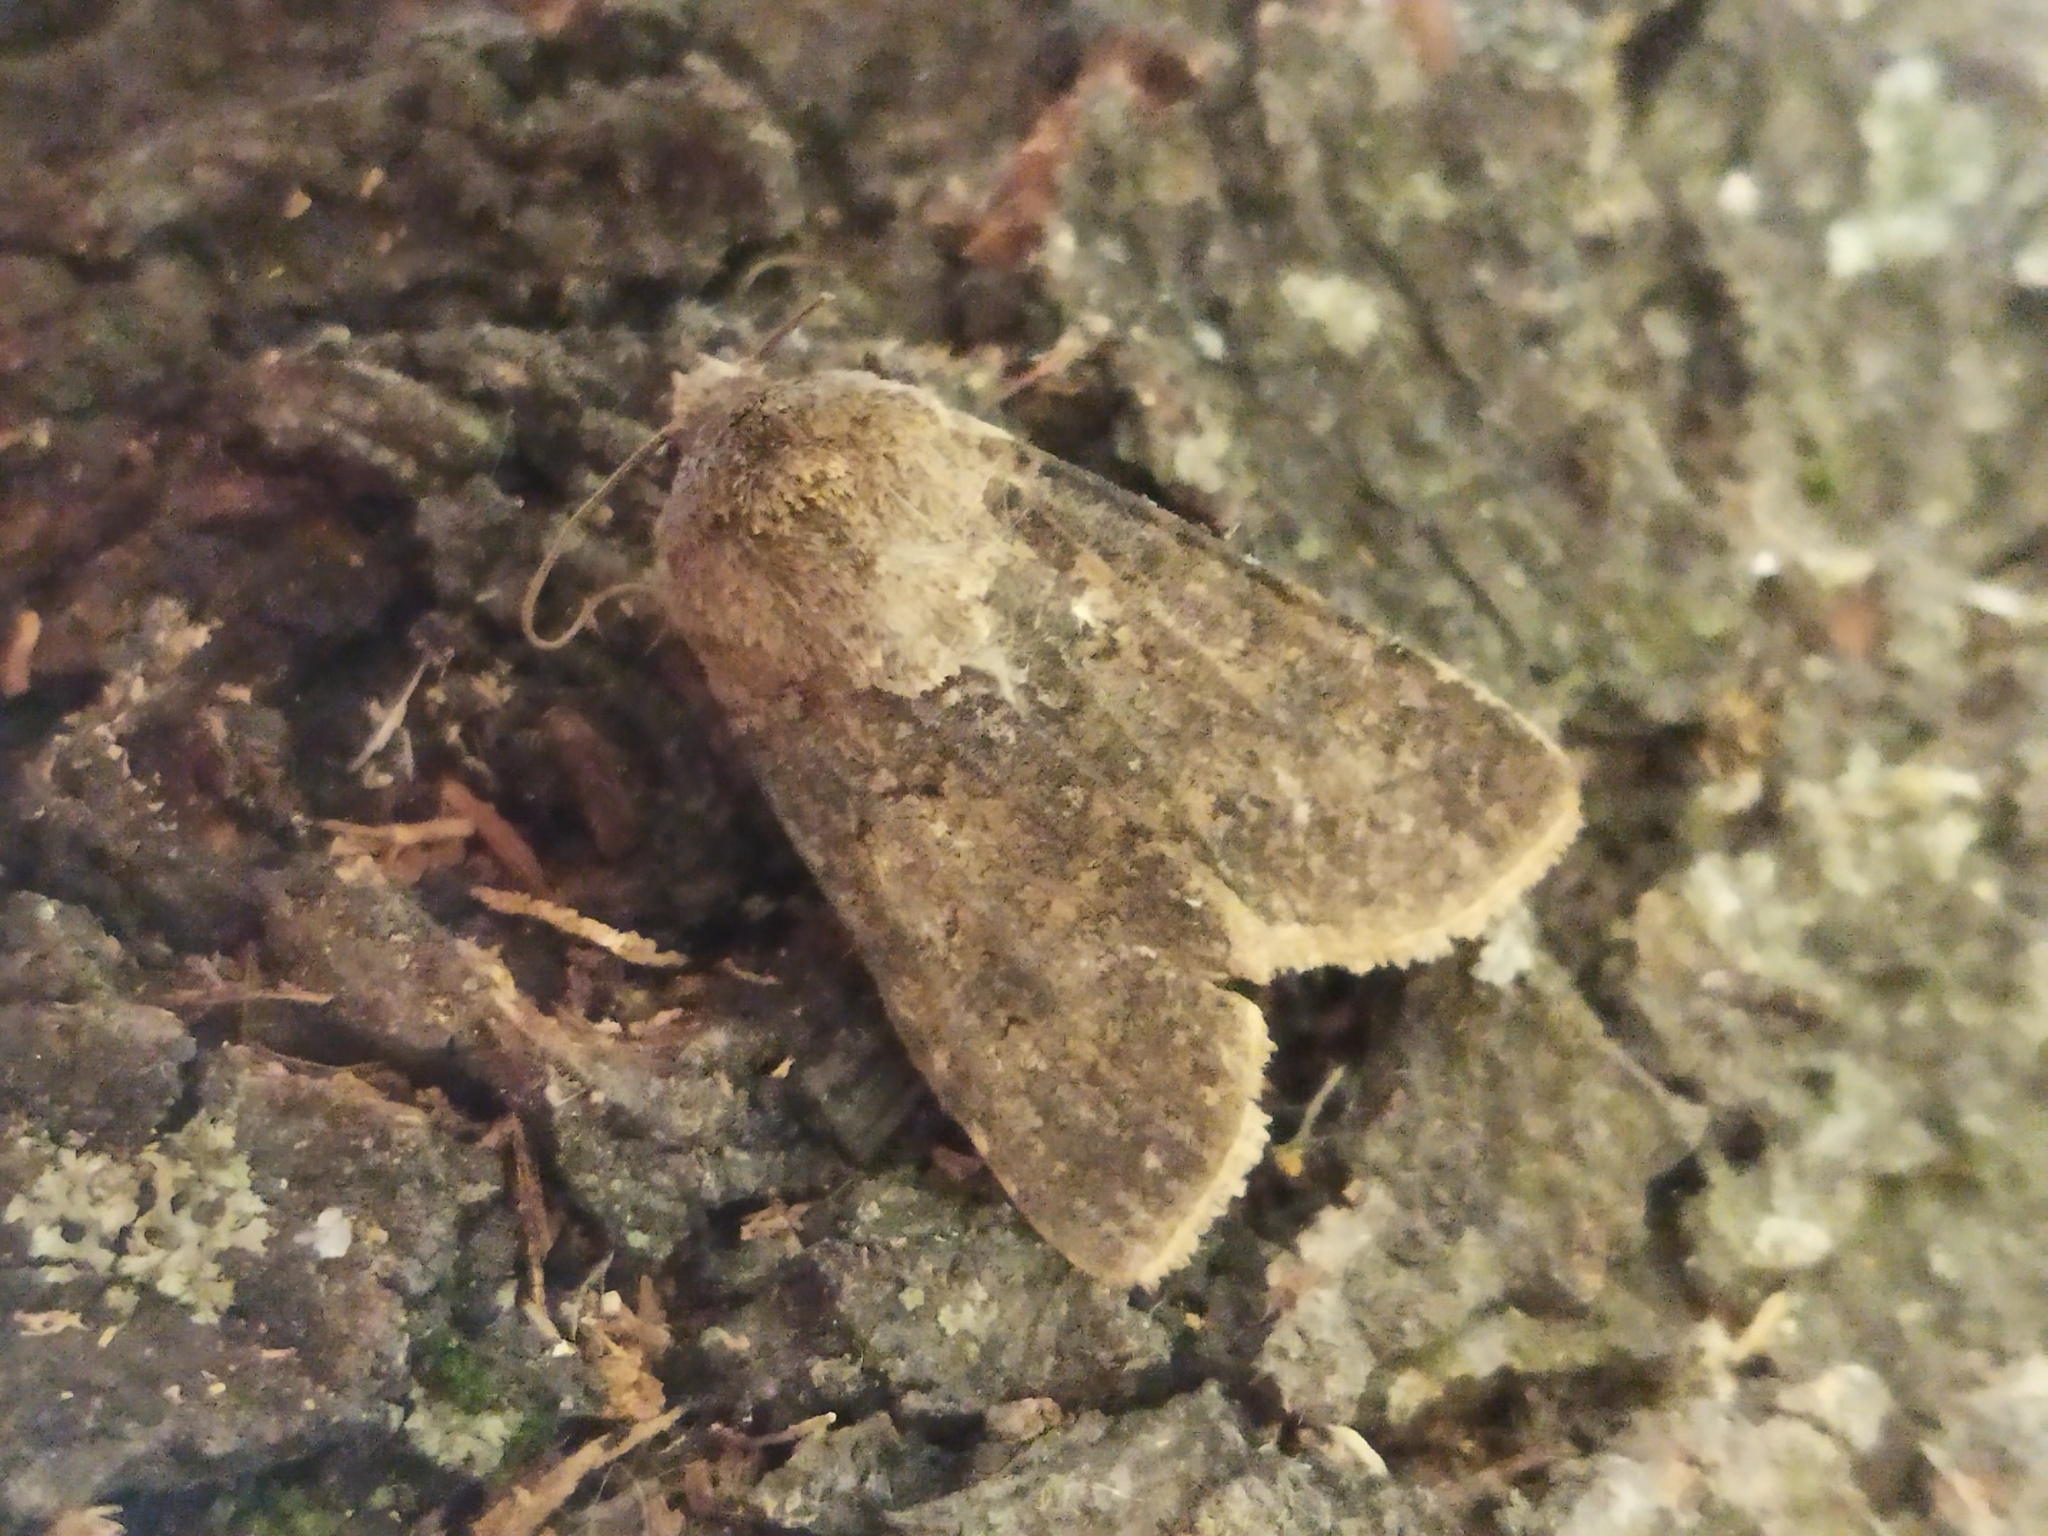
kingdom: Animalia
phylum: Arthropoda
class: Insecta
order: Lepidoptera
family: Noctuidae
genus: Agrotis
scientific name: Agrotis segetum
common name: Turnip moth
